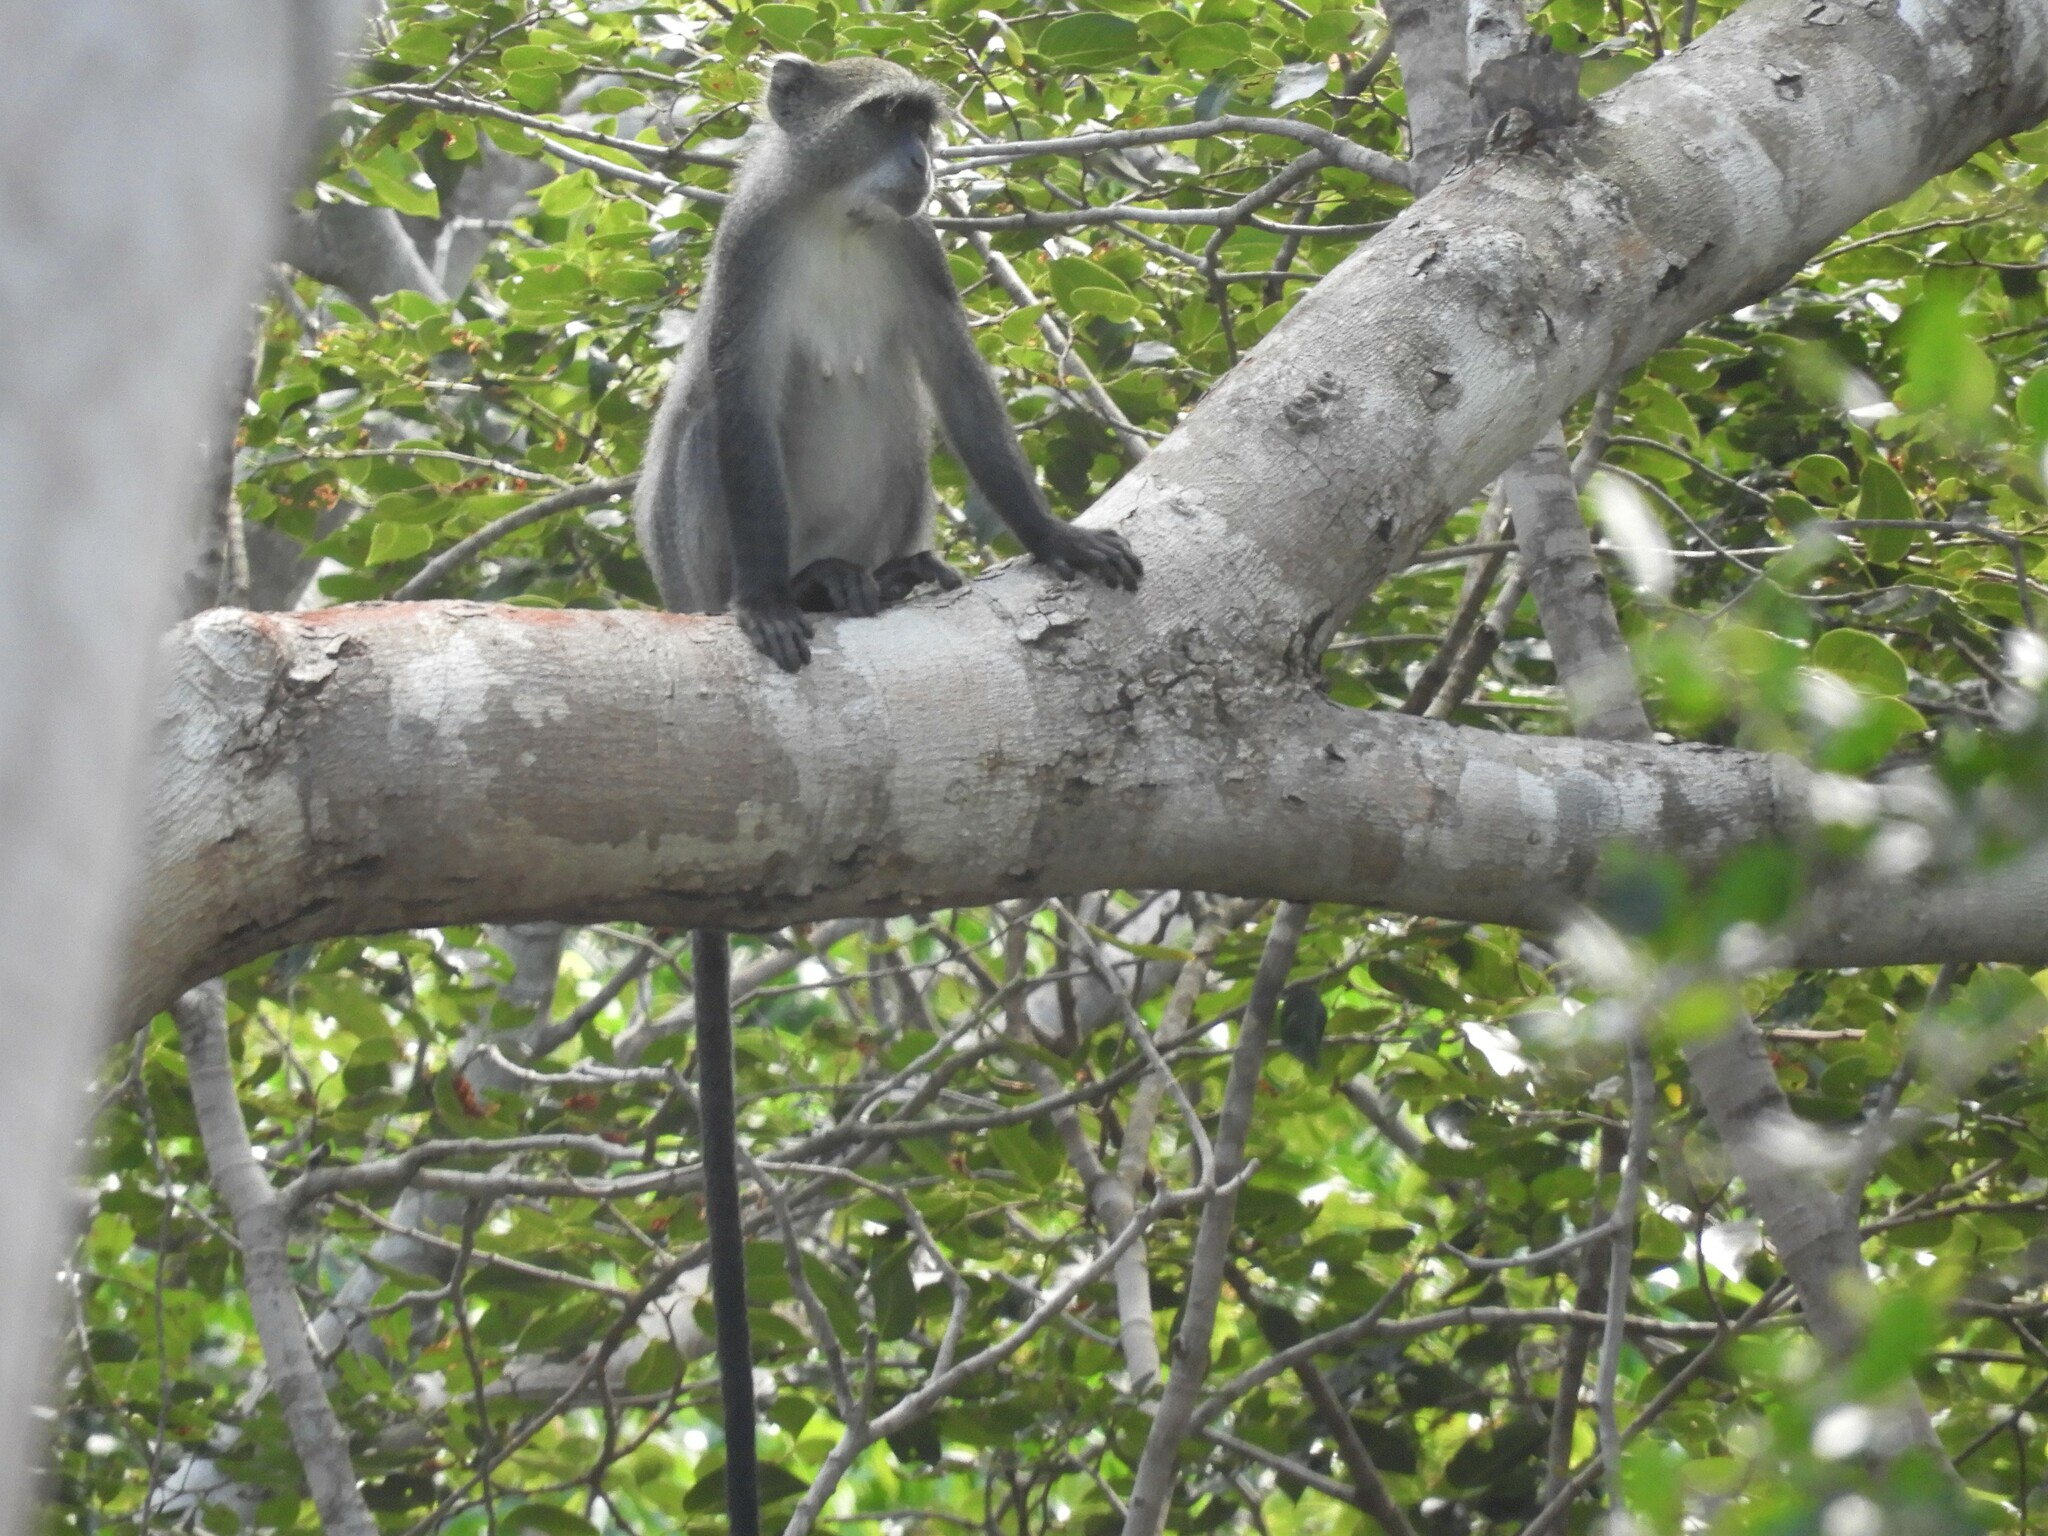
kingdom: Animalia
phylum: Chordata
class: Mammalia
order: Primates
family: Cercopithecidae
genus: Cercopithecus
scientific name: Cercopithecus mitis
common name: Blue monkey
